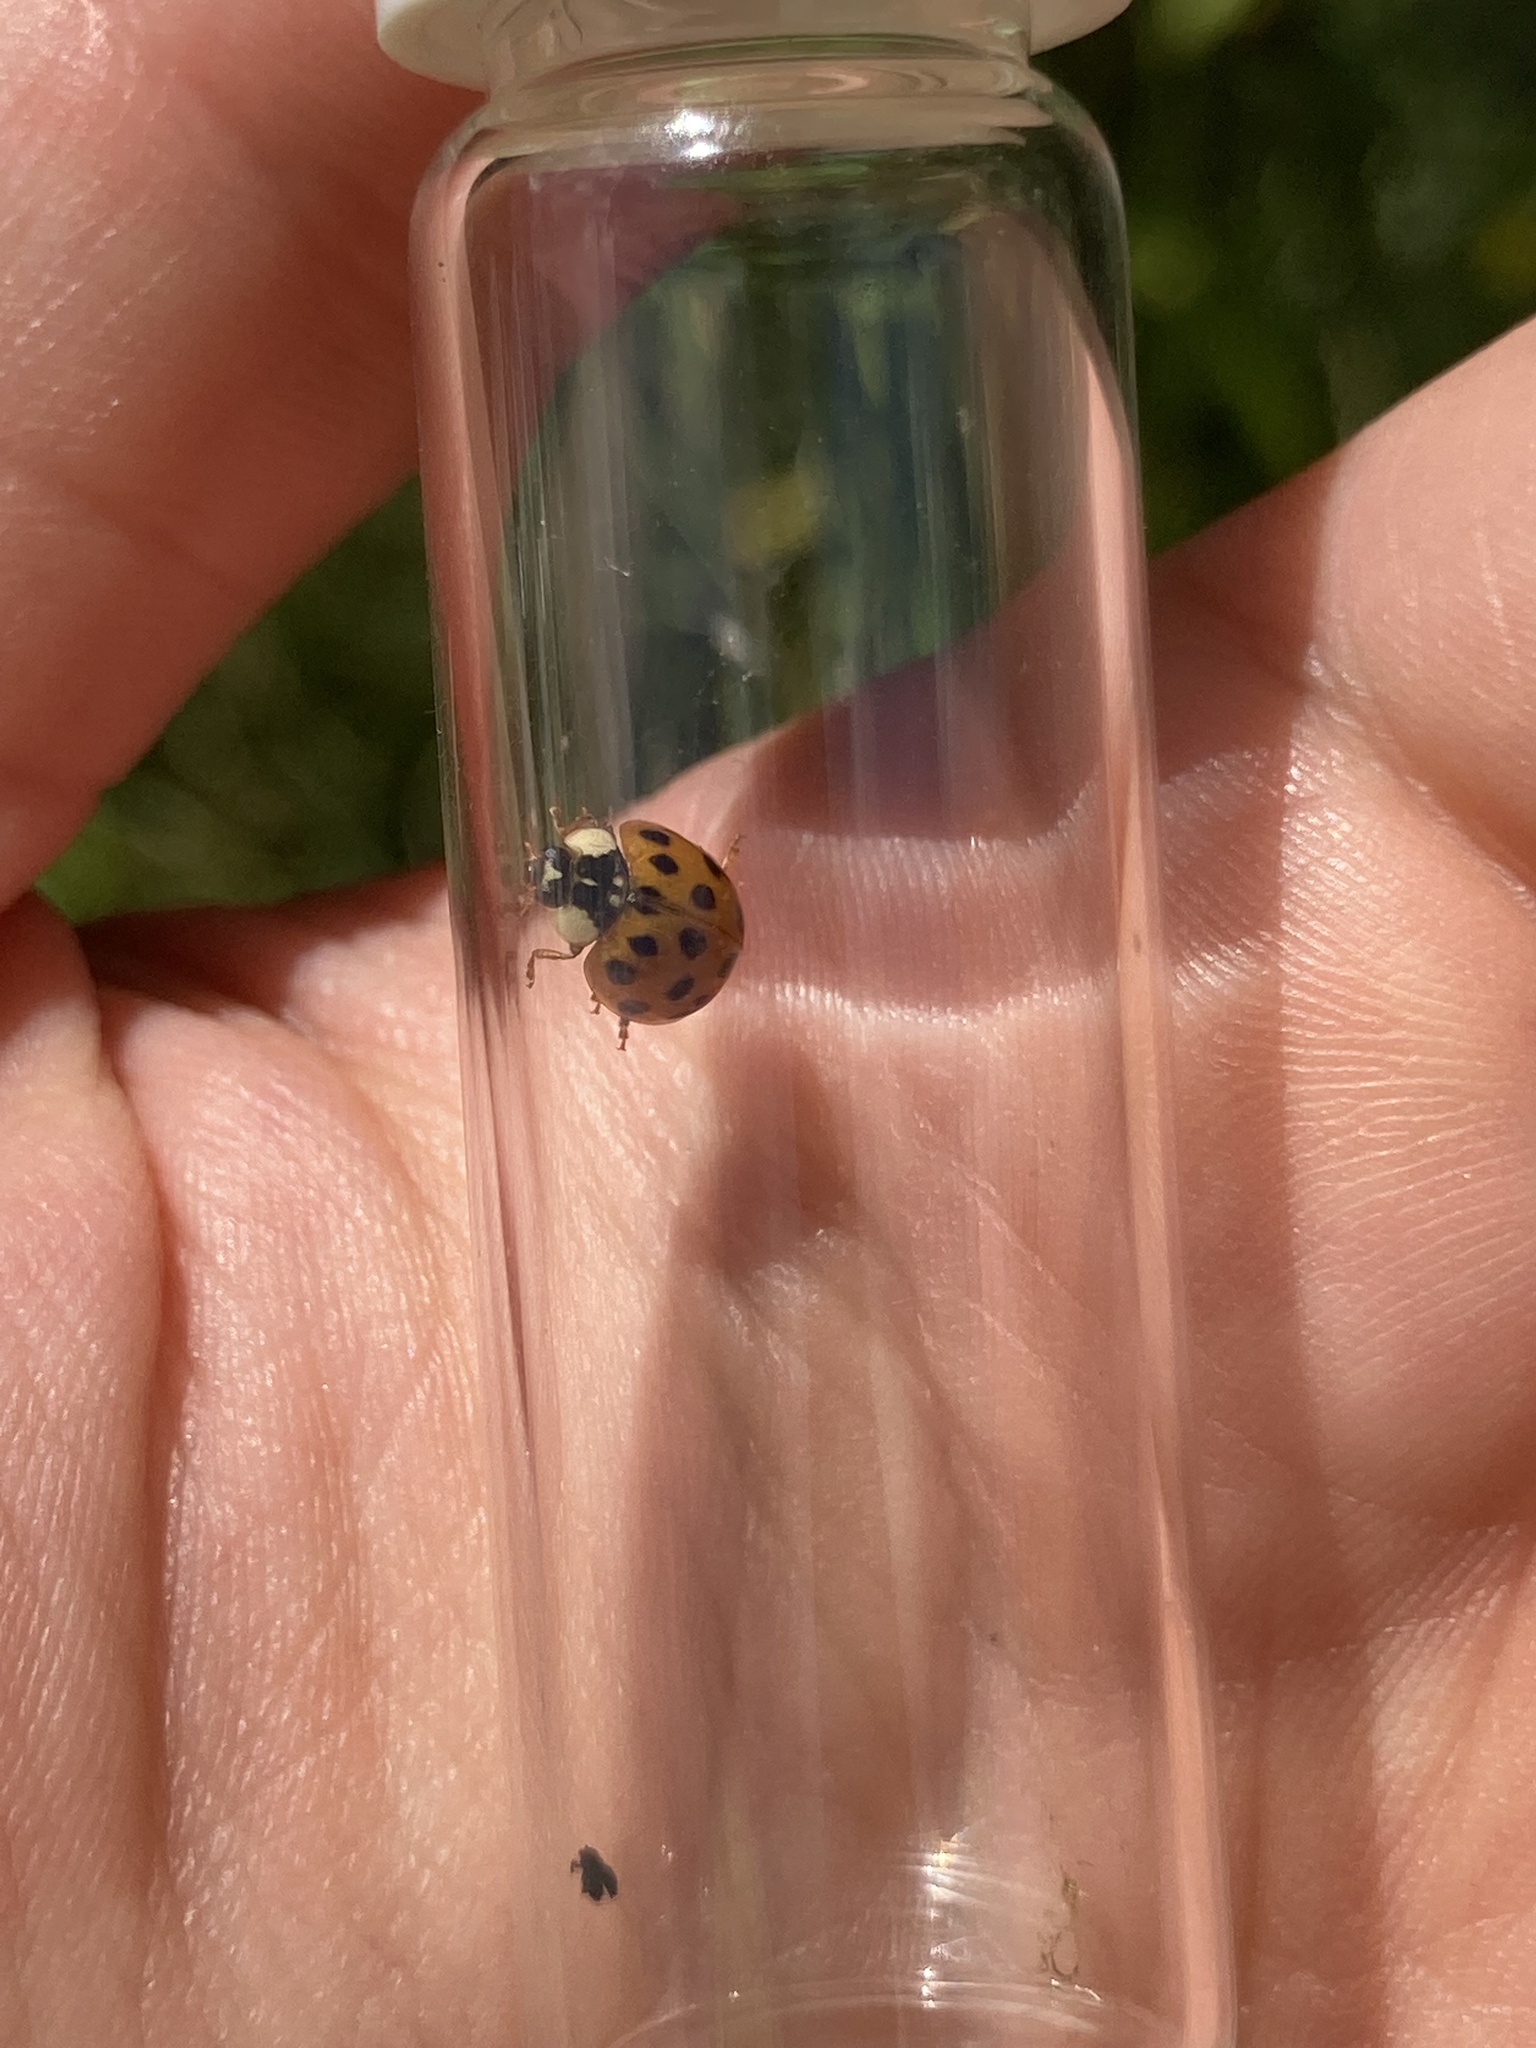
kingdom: Animalia
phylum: Arthropoda
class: Insecta
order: Coleoptera
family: Coccinellidae
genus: Harmonia
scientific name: Harmonia axyridis
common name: Harlequin ladybird
